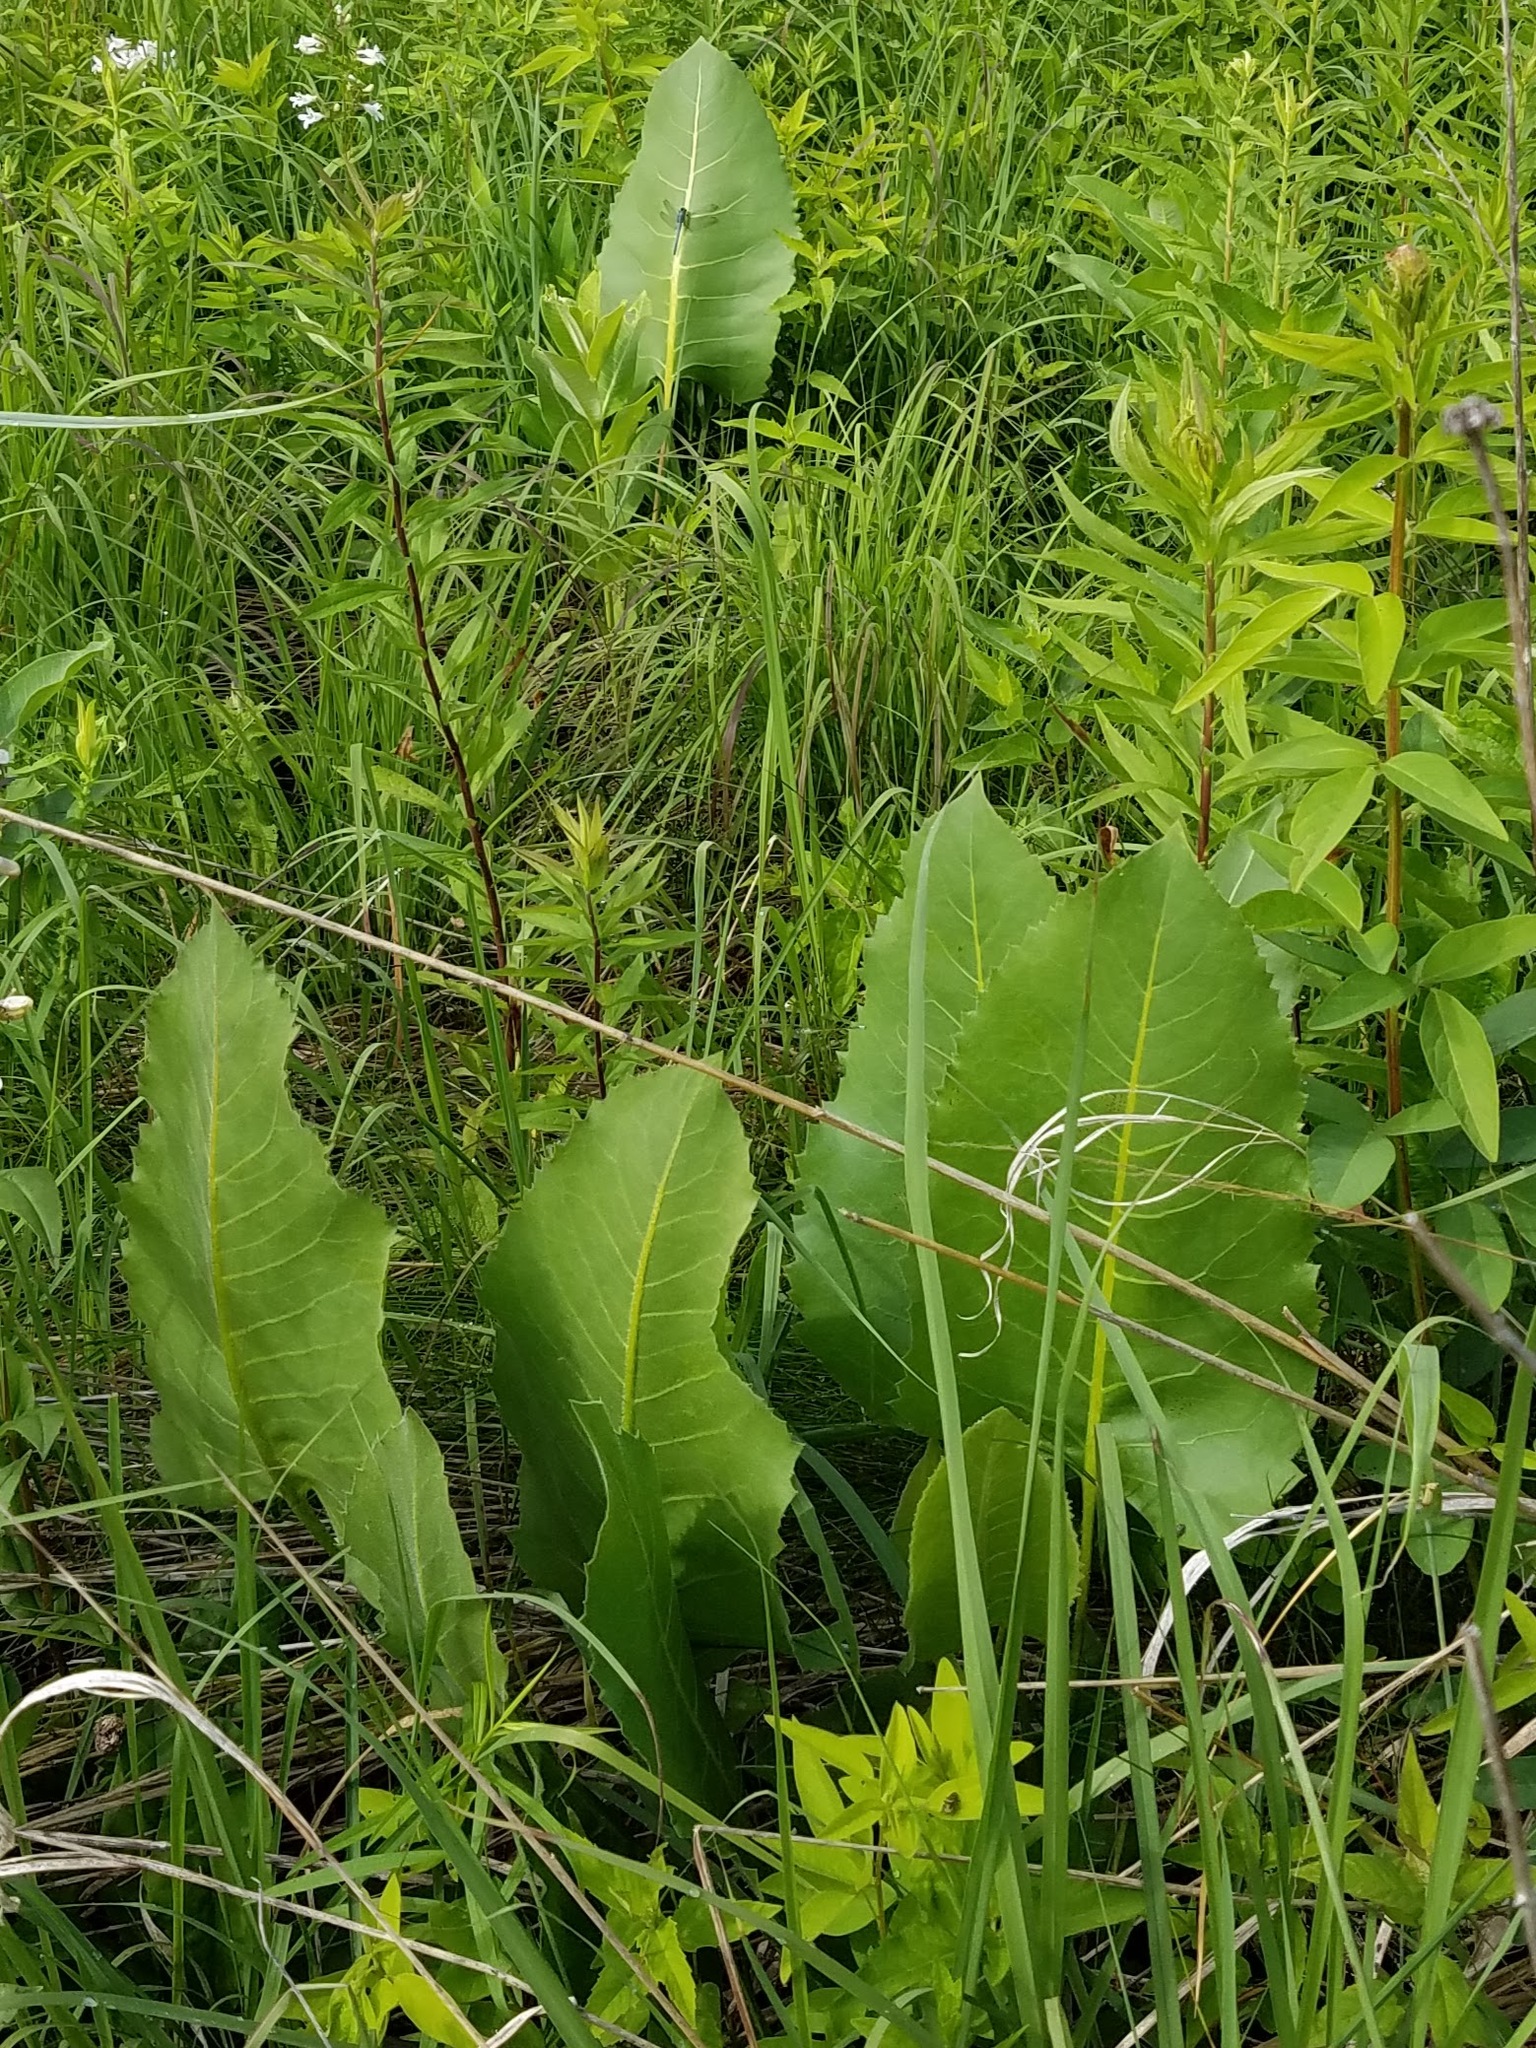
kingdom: Plantae
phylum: Tracheophyta
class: Magnoliopsida
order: Asterales
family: Asteraceae
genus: Silphium
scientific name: Silphium terebinthinaceum
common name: Basal-leaf rosinweed
